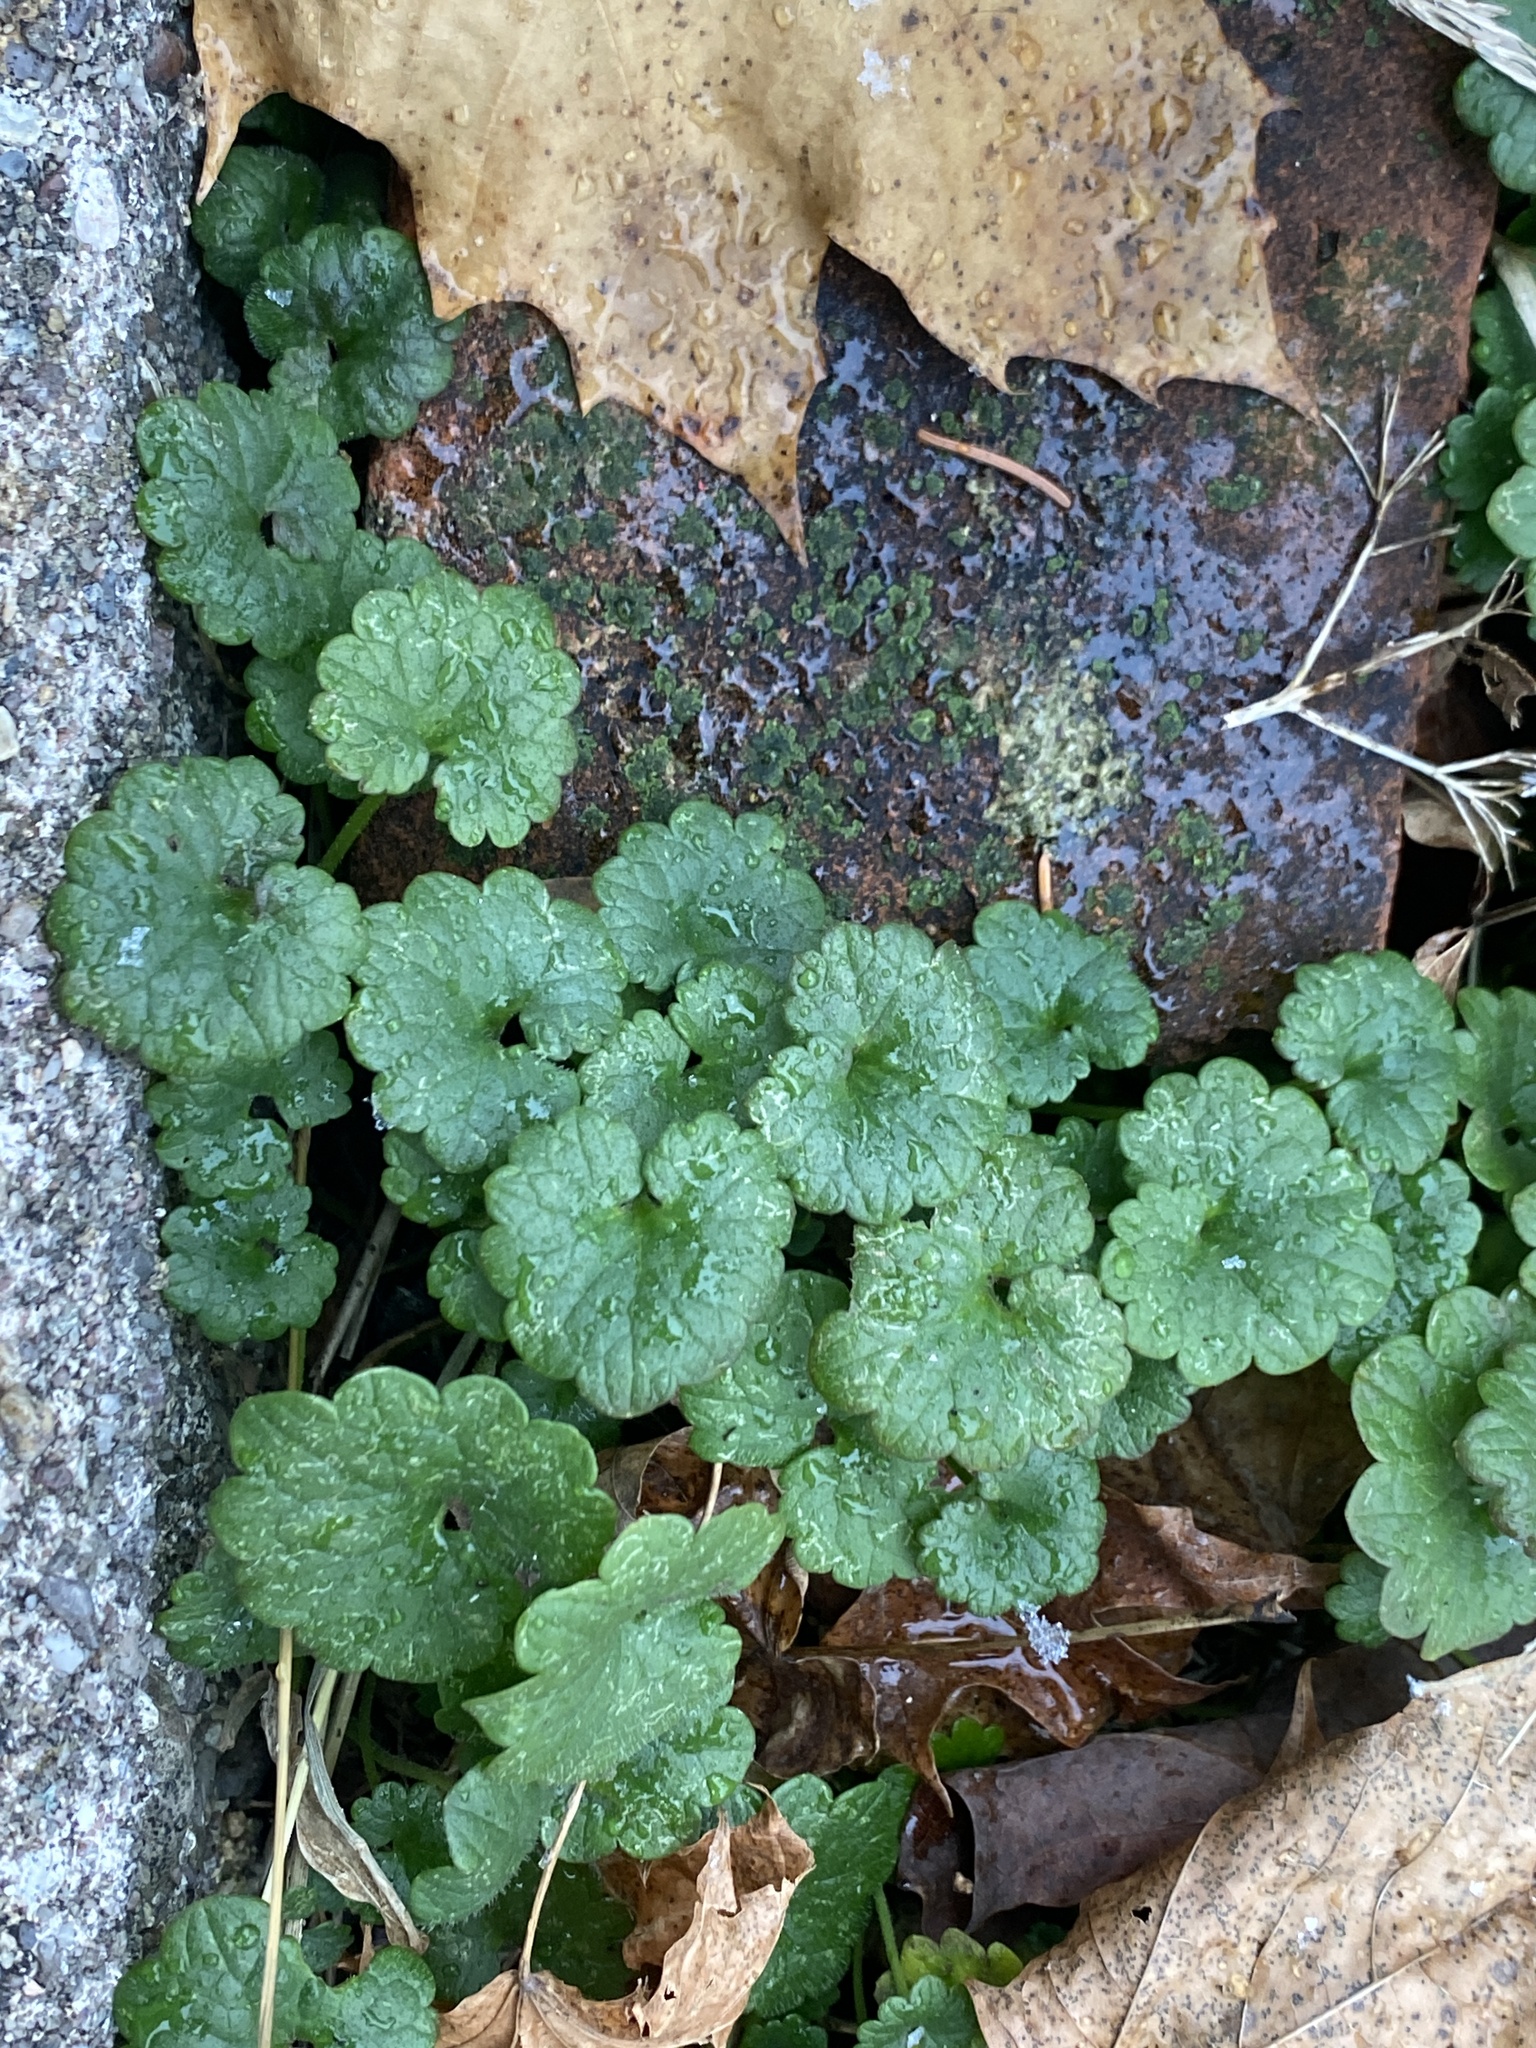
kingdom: Plantae
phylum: Tracheophyta
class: Magnoliopsida
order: Lamiales
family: Lamiaceae
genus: Glechoma
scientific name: Glechoma hederacea
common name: Ground ivy
